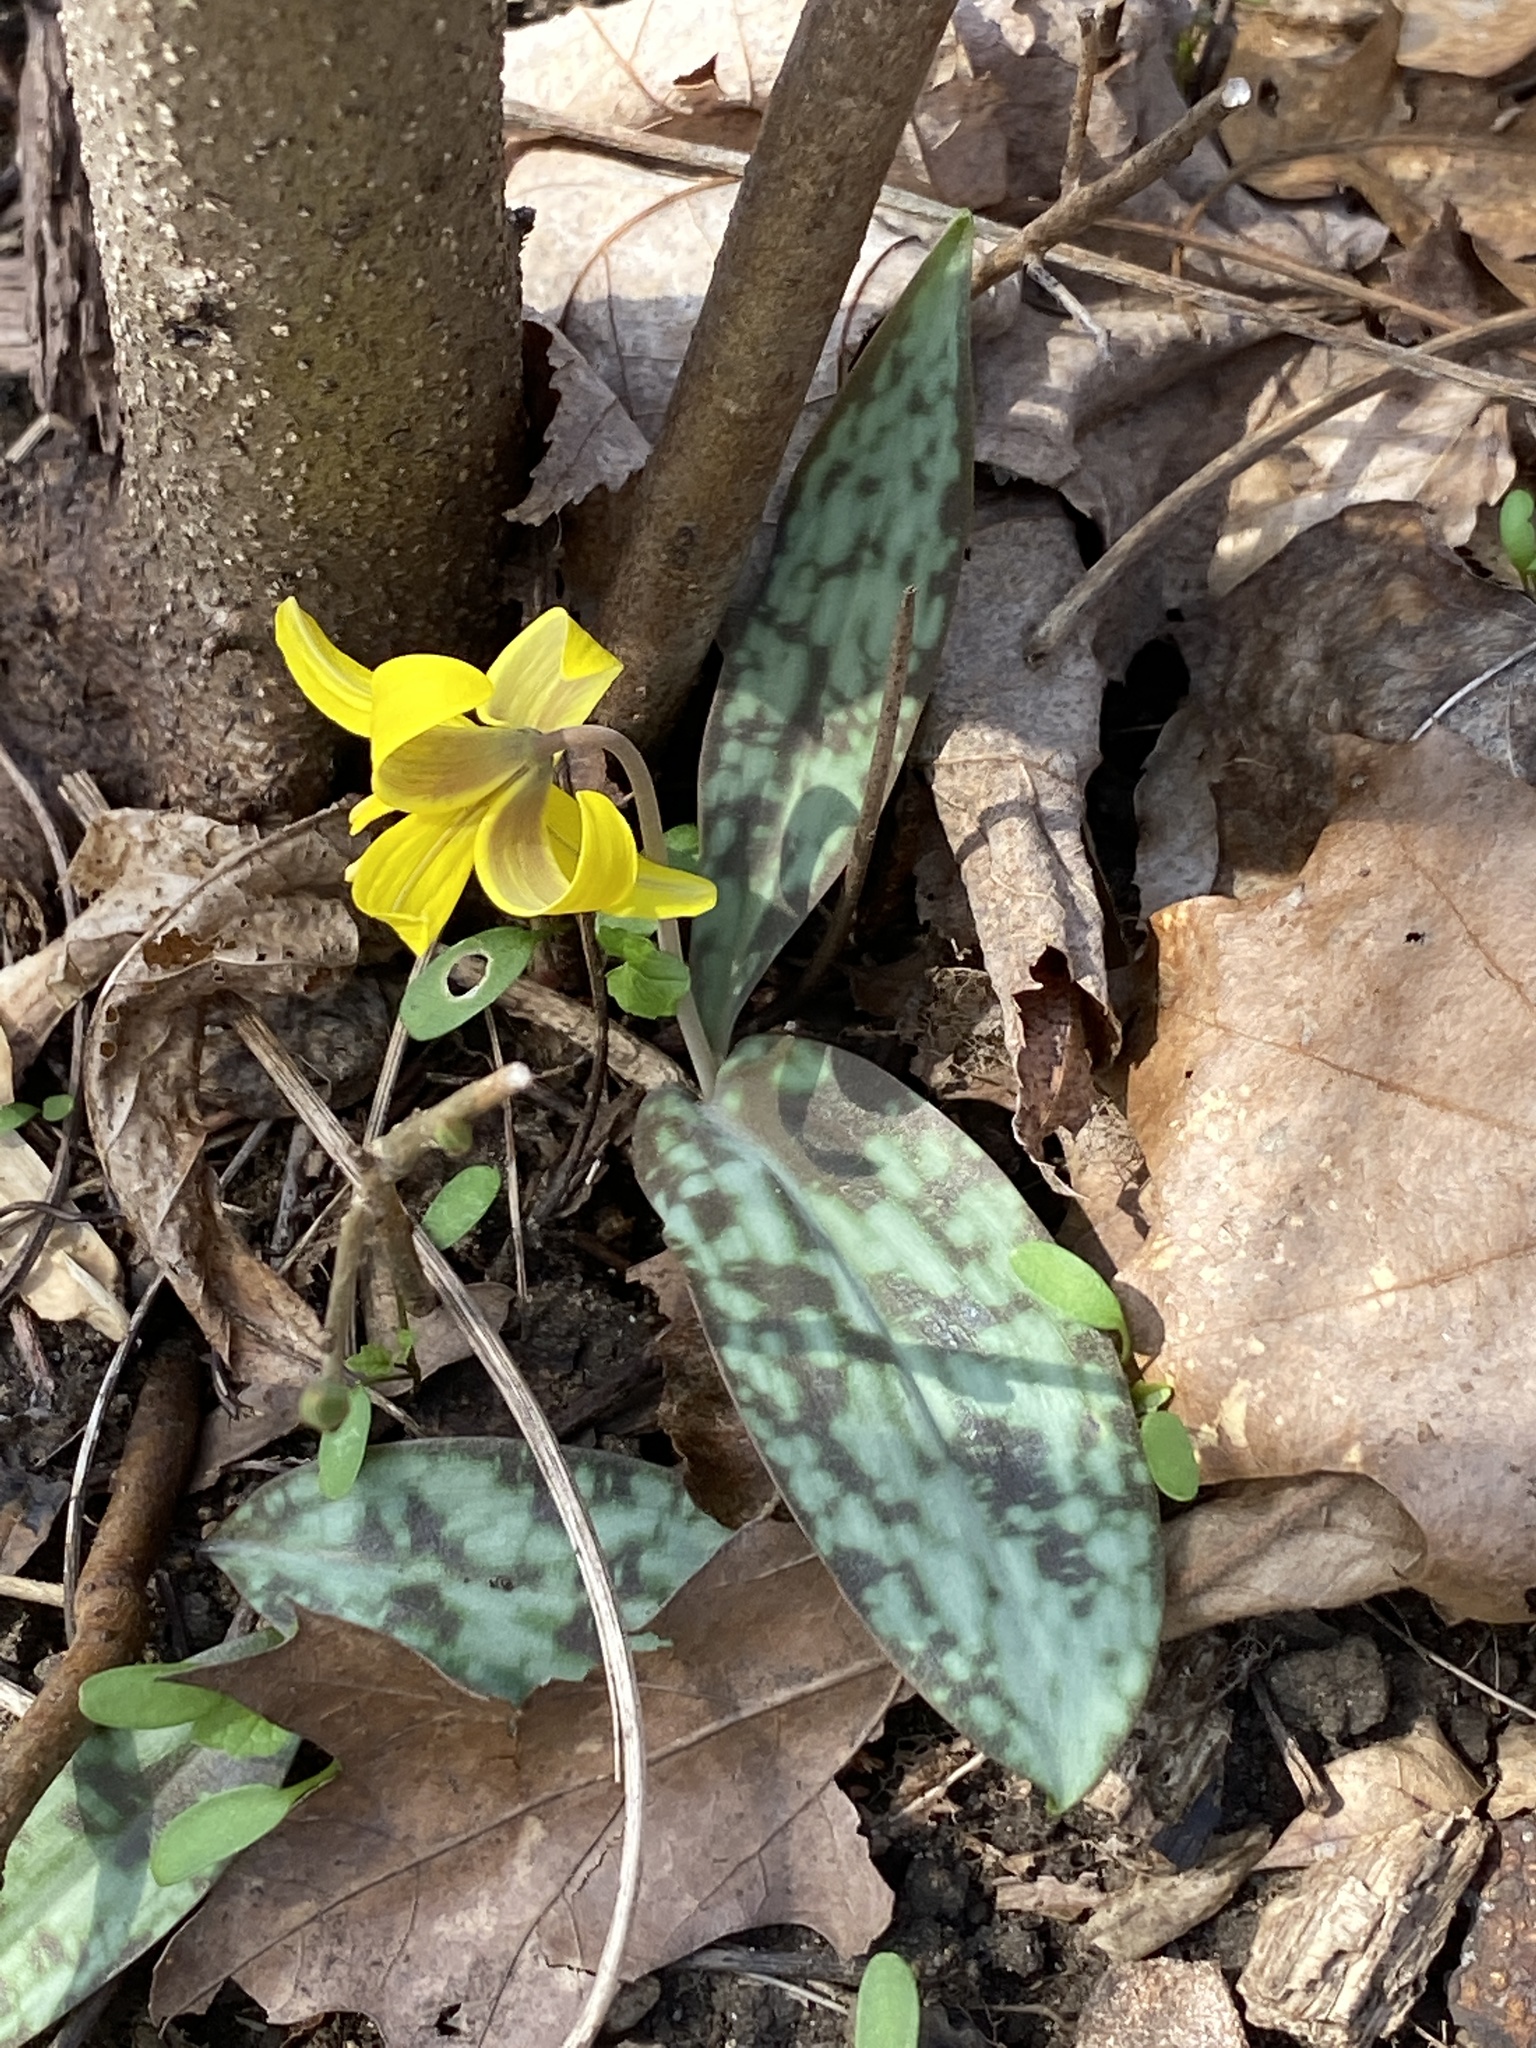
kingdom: Plantae
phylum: Tracheophyta
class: Liliopsida
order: Liliales
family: Liliaceae
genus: Erythronium
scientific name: Erythronium americanum
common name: Yellow adder's-tongue
